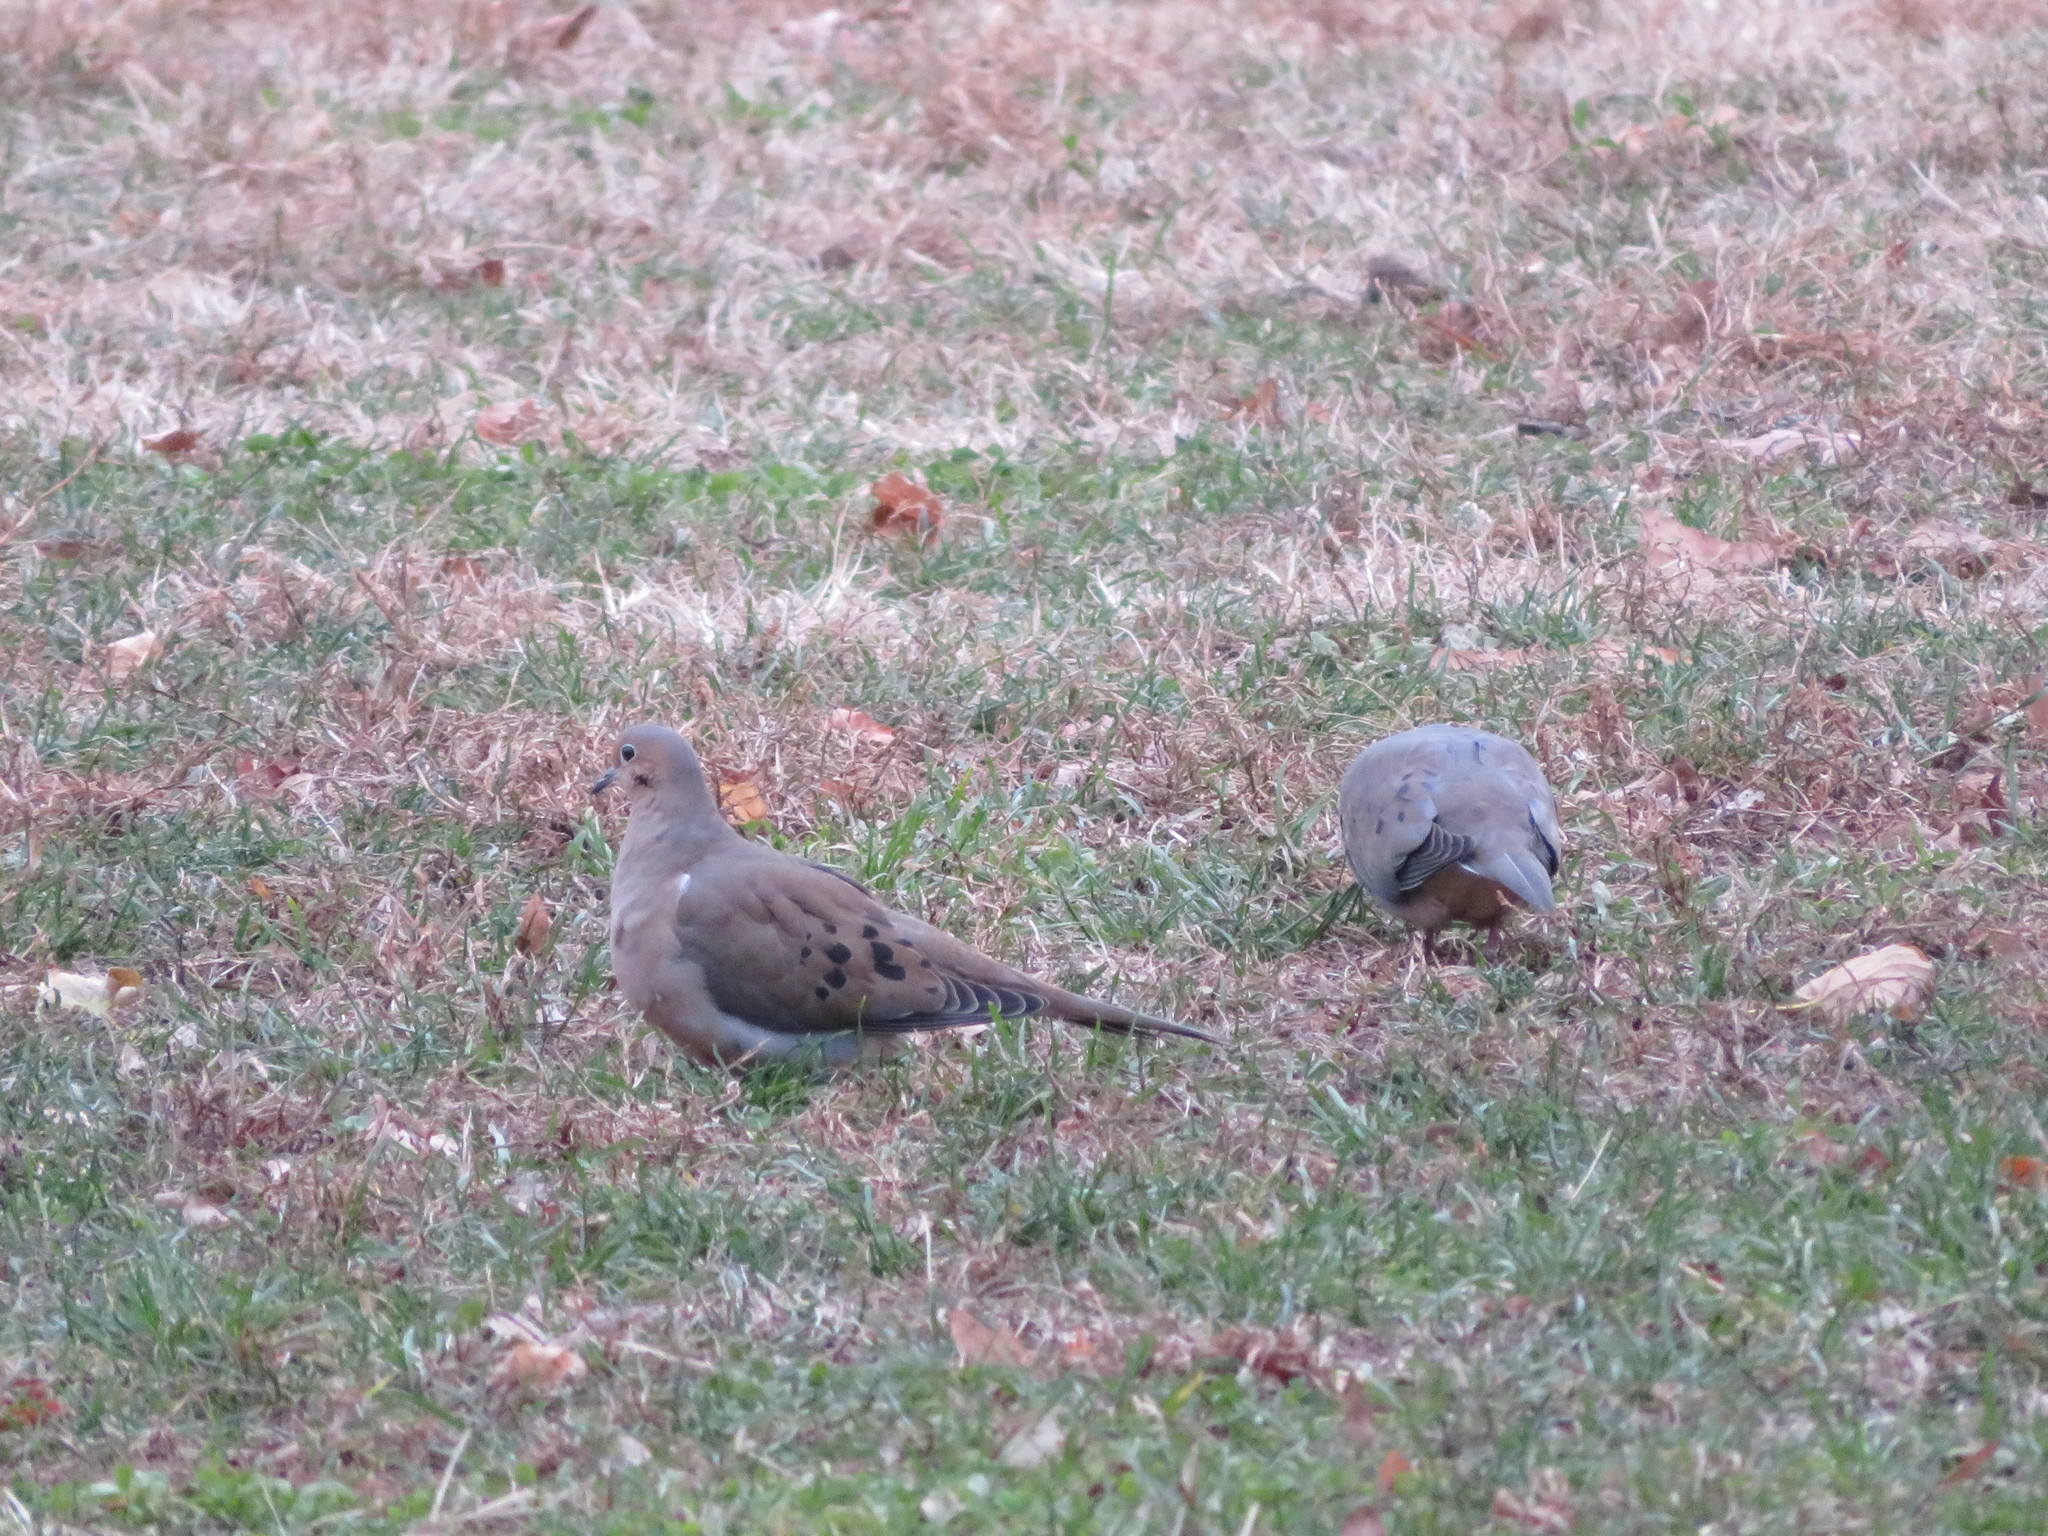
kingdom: Animalia
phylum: Chordata
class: Aves
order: Columbiformes
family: Columbidae
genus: Zenaida
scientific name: Zenaida macroura
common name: Mourning dove
